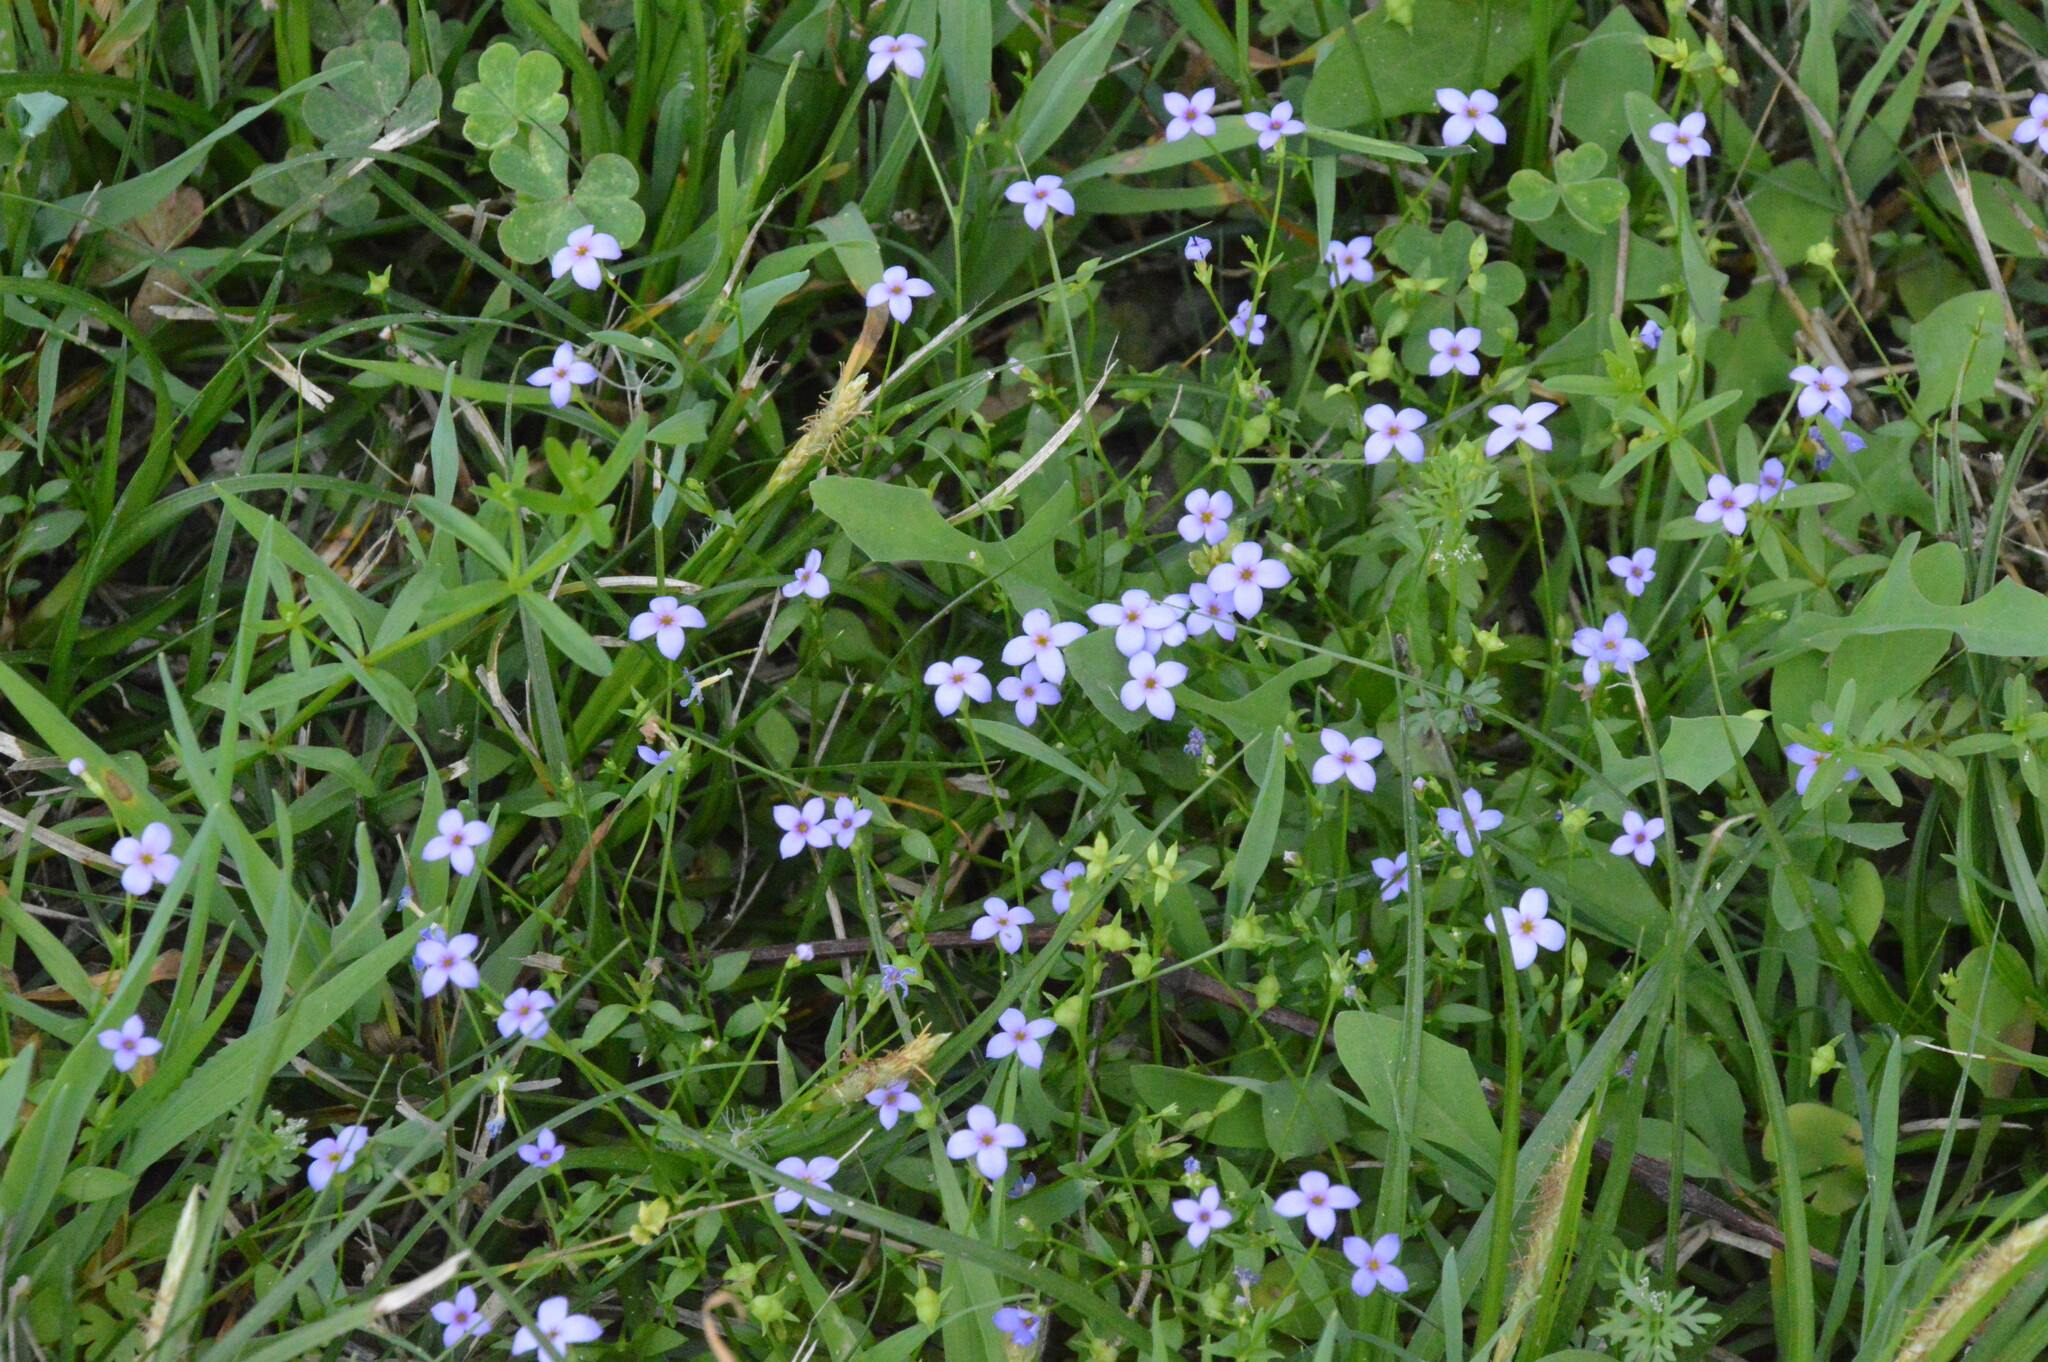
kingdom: Plantae
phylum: Tracheophyta
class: Magnoliopsida
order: Gentianales
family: Rubiaceae
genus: Houstonia
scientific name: Houstonia pusilla
